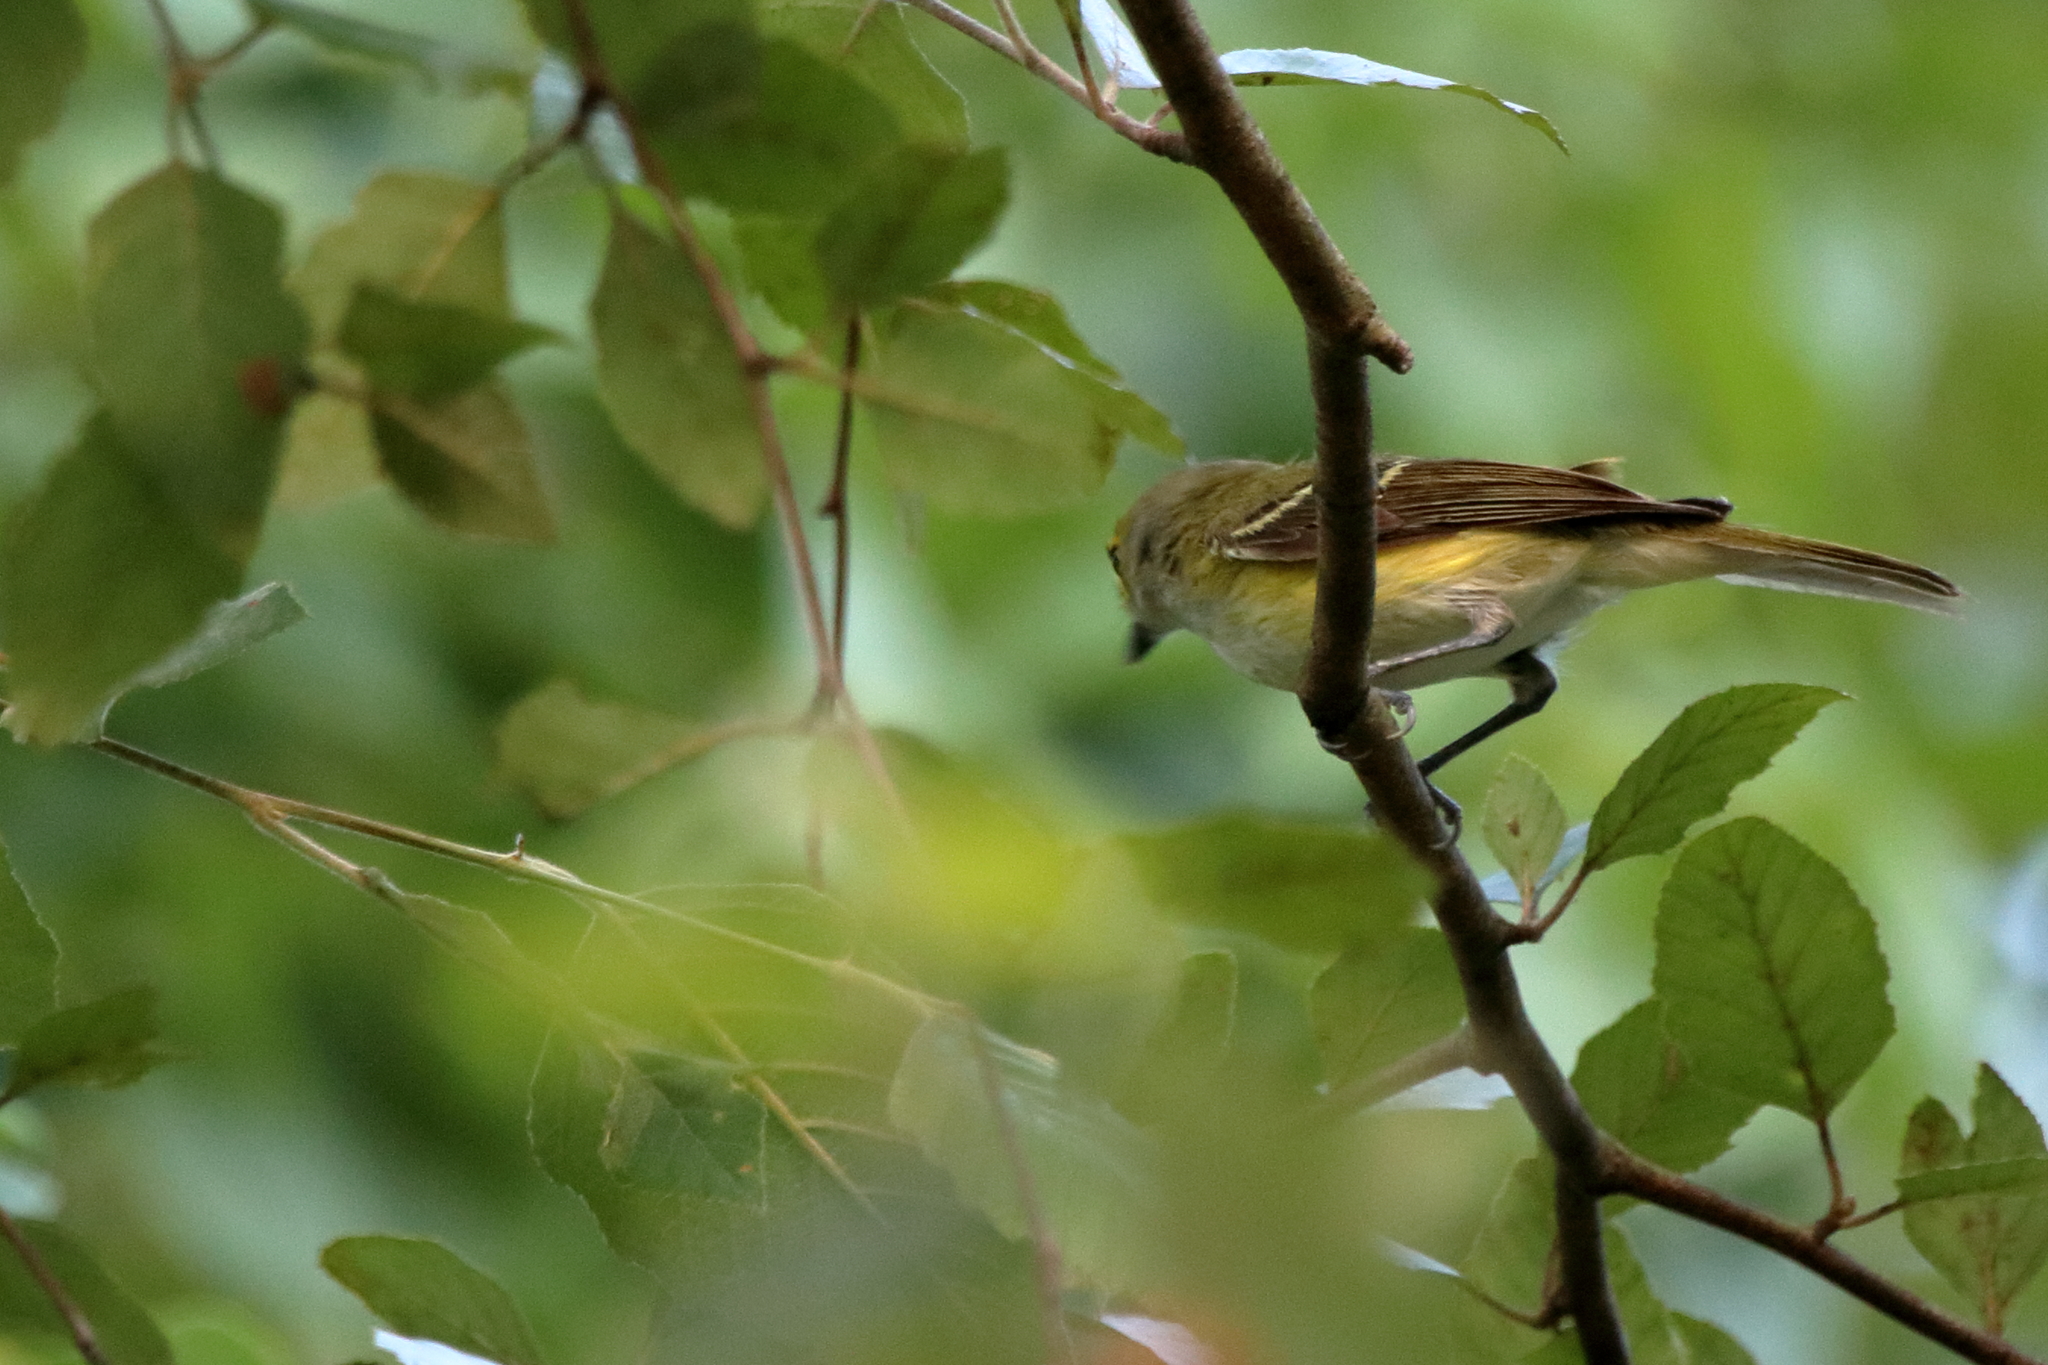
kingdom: Animalia
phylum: Chordata
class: Aves
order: Passeriformes
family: Vireonidae
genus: Vireo
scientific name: Vireo griseus
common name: White-eyed vireo
